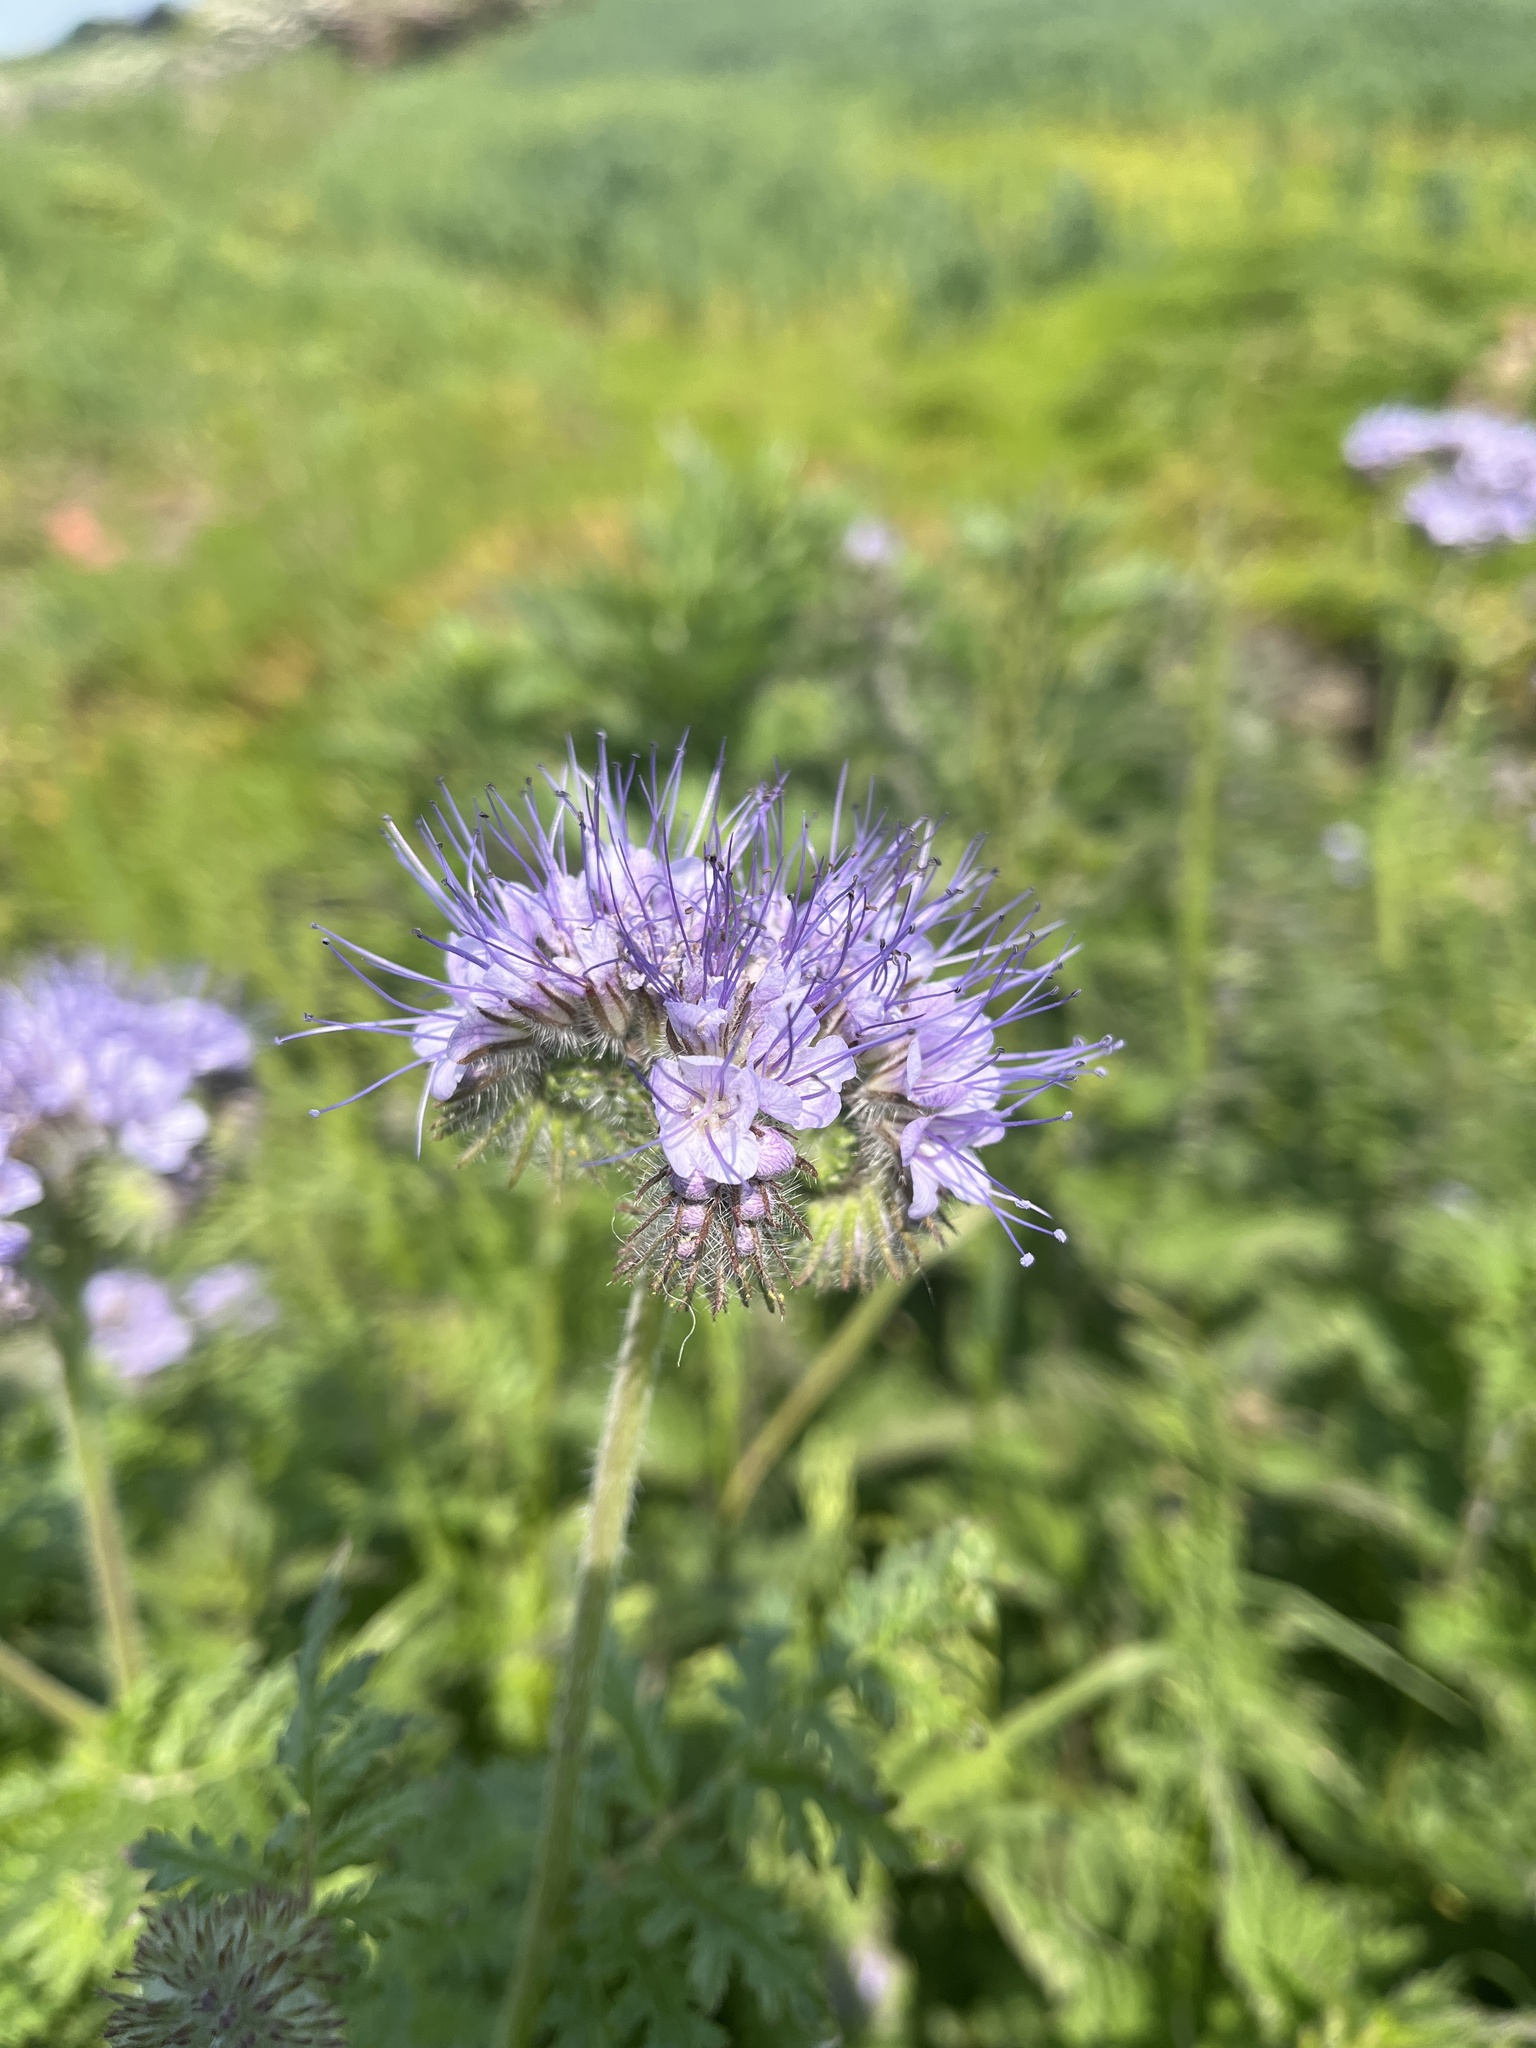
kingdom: Plantae
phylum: Tracheophyta
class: Magnoliopsida
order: Boraginales
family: Hydrophyllaceae
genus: Phacelia
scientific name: Phacelia tanacetifolia
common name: Phacelia
